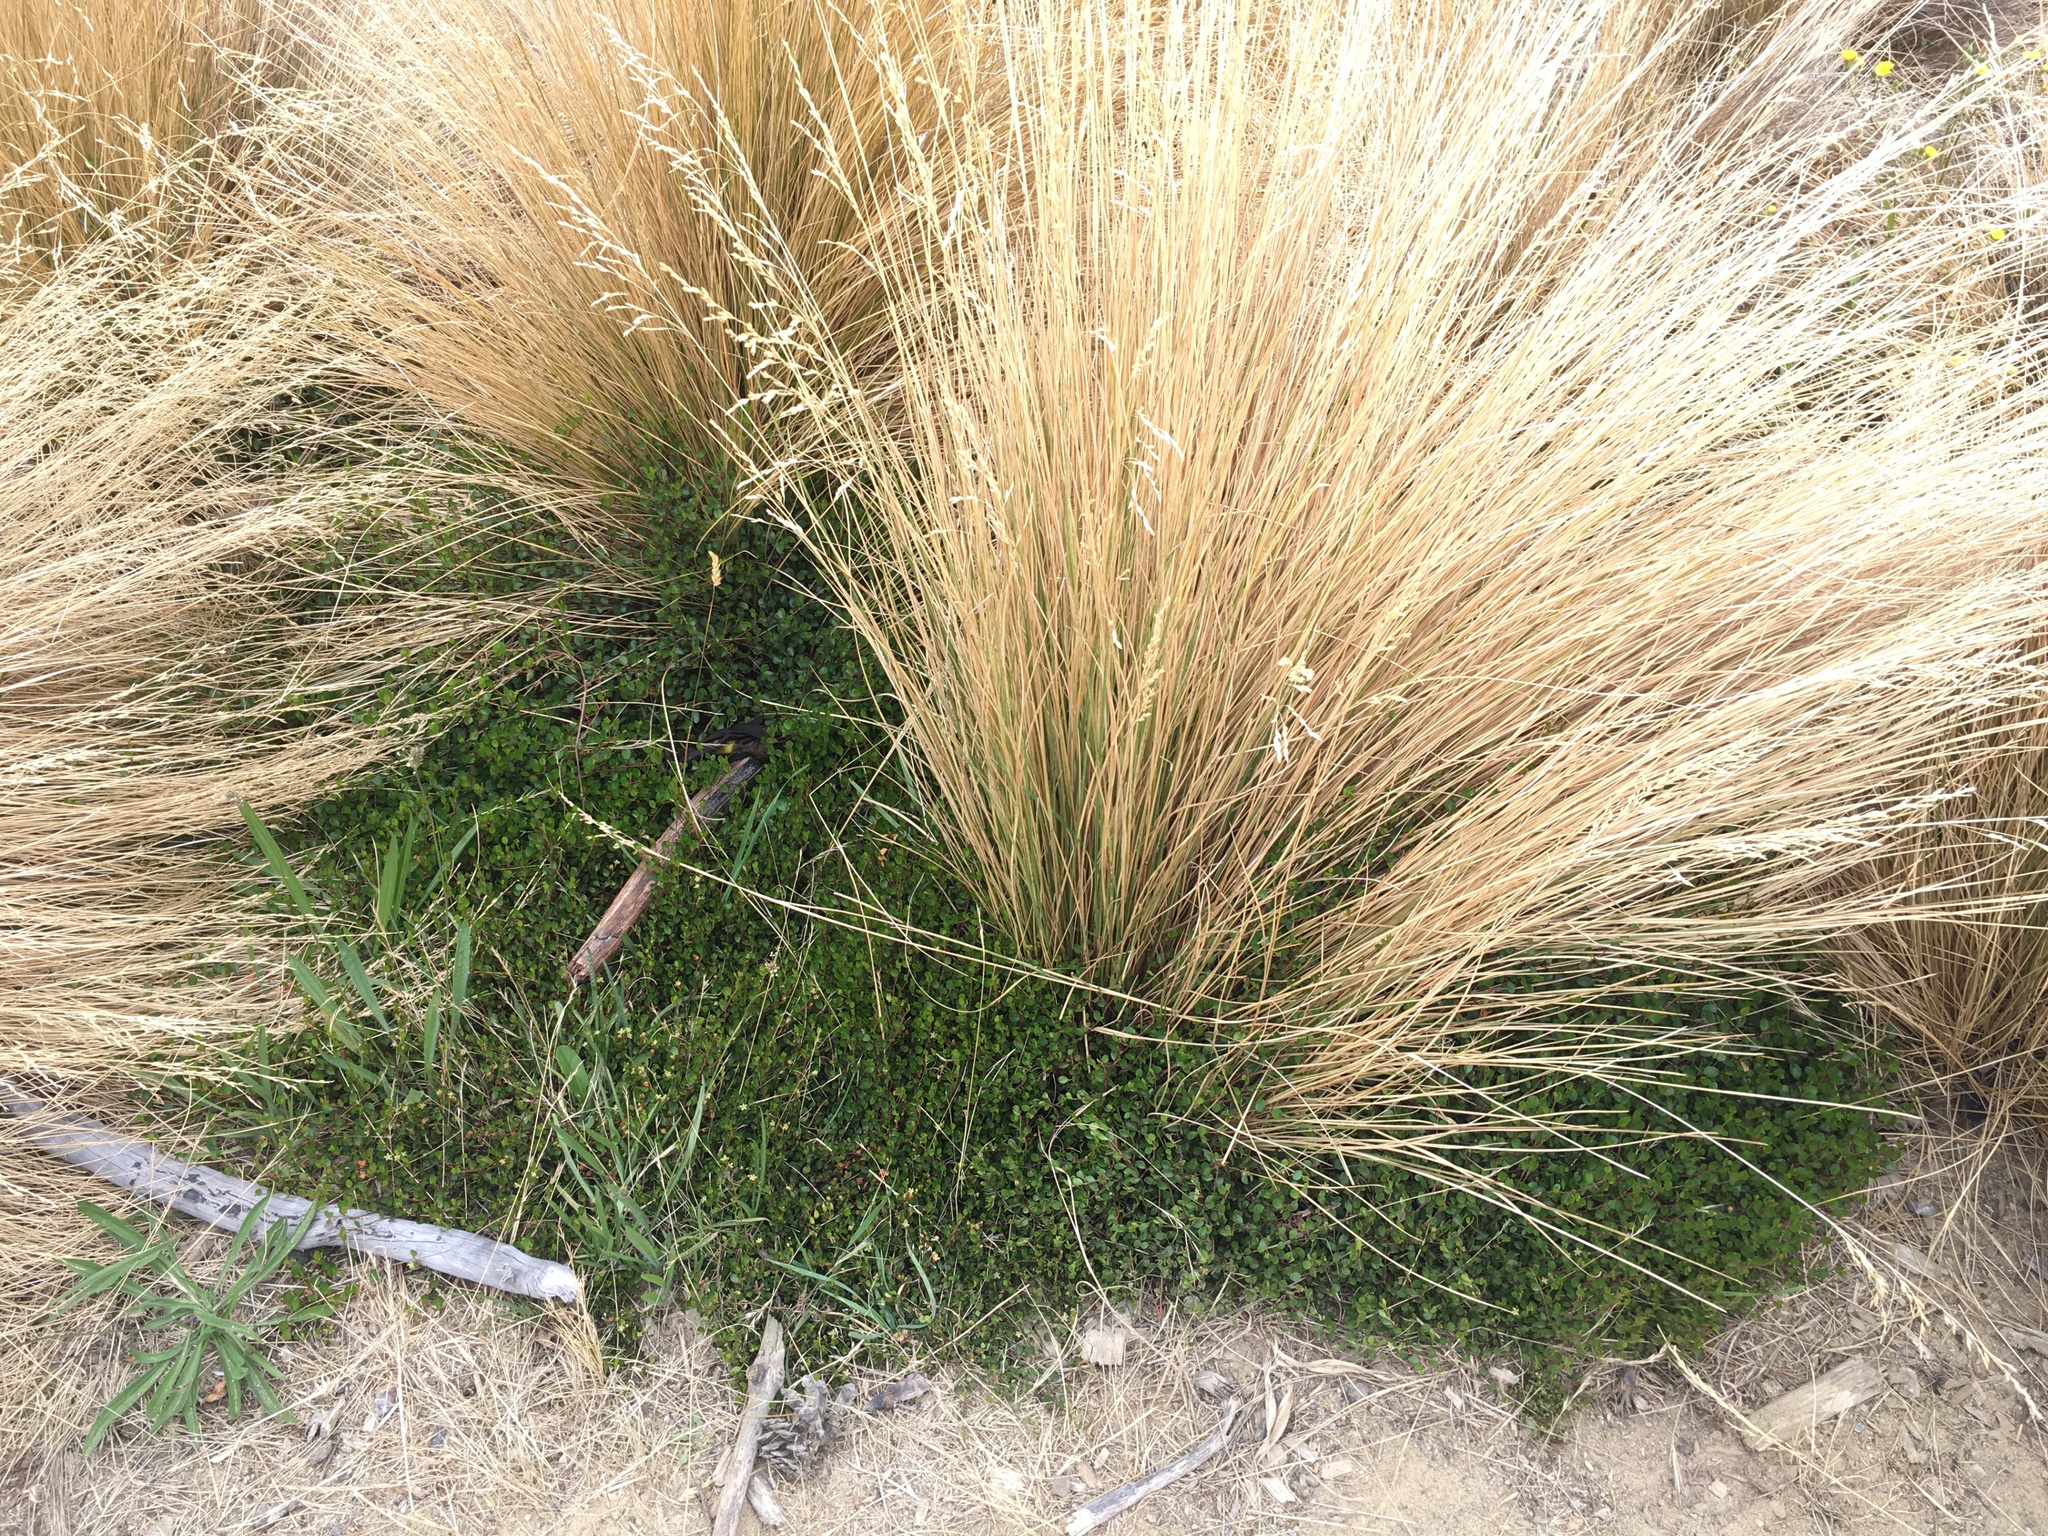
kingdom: Plantae
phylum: Tracheophyta
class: Magnoliopsida
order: Caryophyllales
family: Polygonaceae
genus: Muehlenbeckia
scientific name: Muehlenbeckia axillaris
